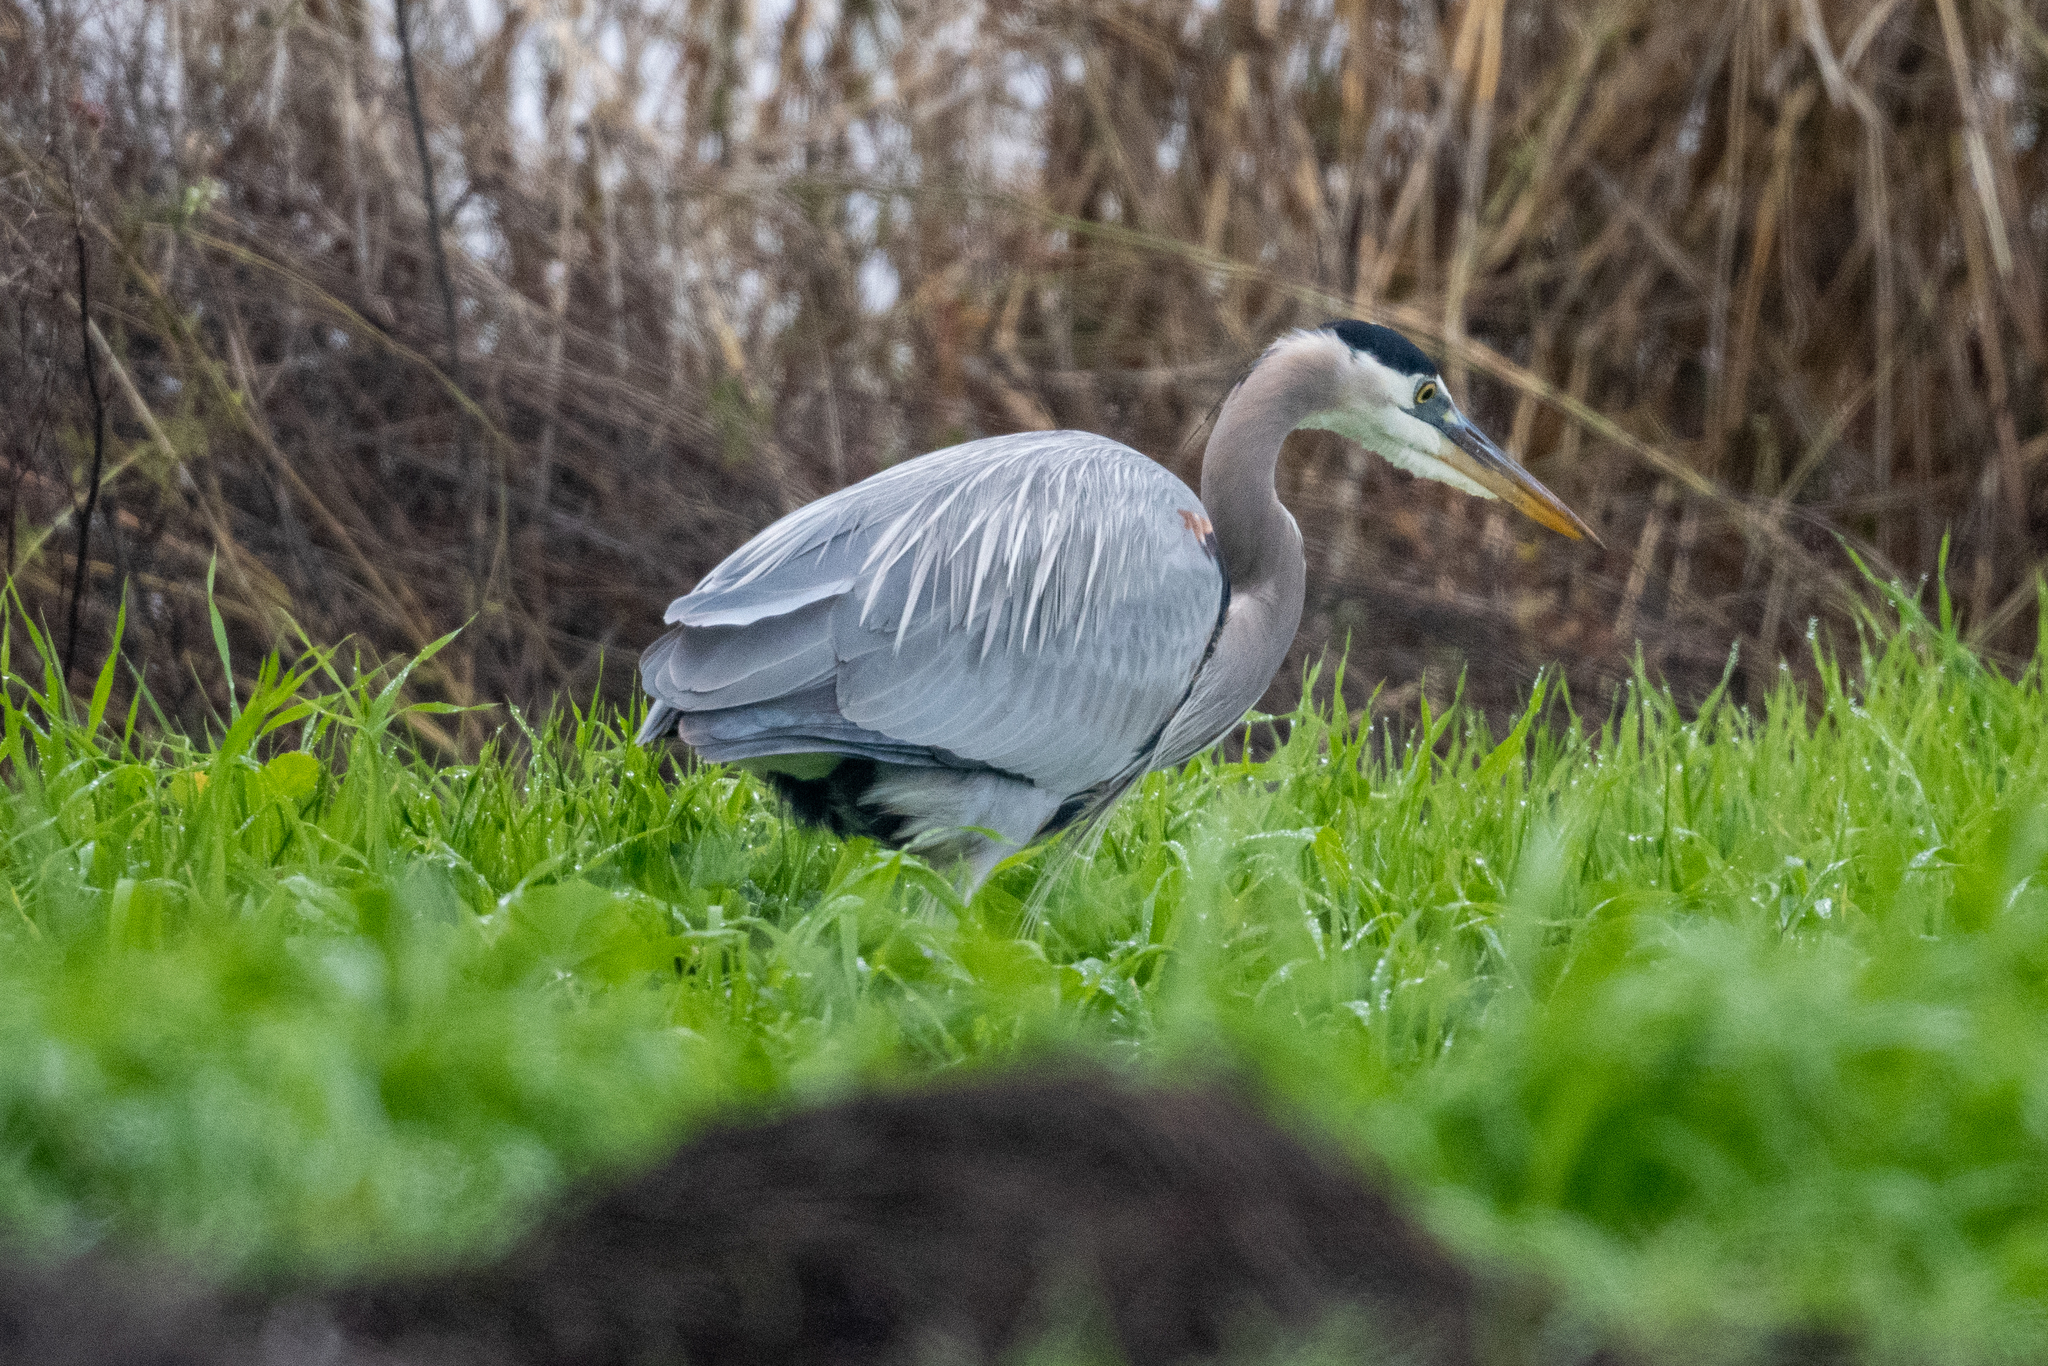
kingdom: Animalia
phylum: Chordata
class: Aves
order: Pelecaniformes
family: Ardeidae
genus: Ardea
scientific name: Ardea herodias
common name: Great blue heron
